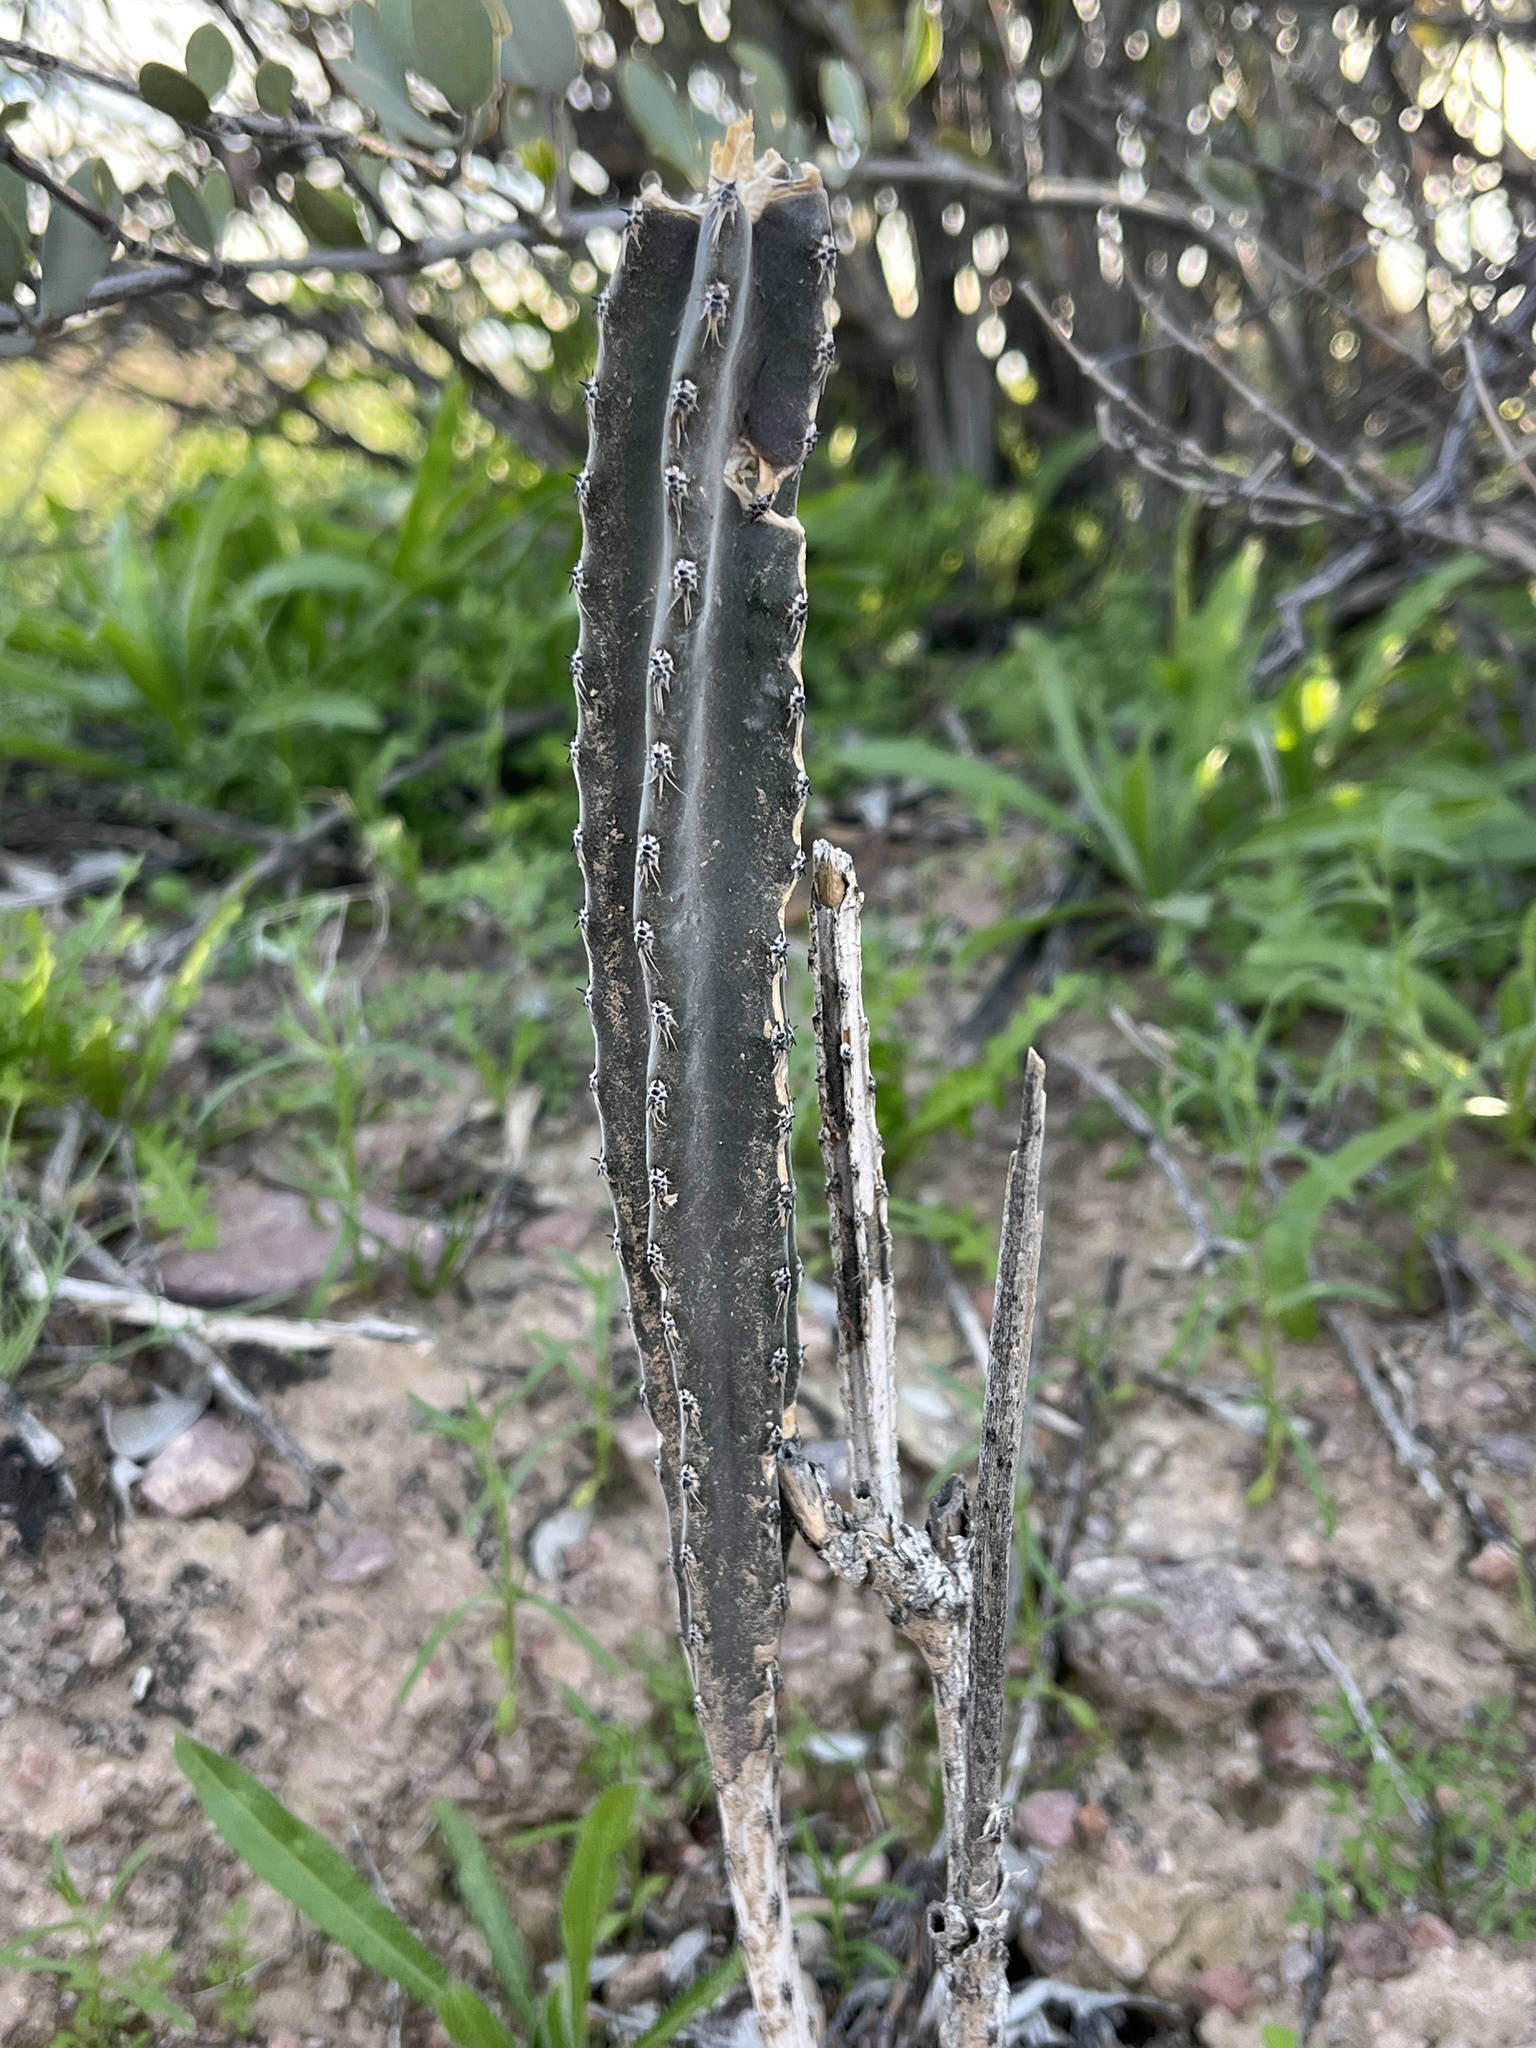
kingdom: Plantae
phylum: Tracheophyta
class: Magnoliopsida
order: Caryophyllales
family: Cactaceae
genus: Peniocereus
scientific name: Peniocereus greggii
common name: Desert night-blooming cereus
